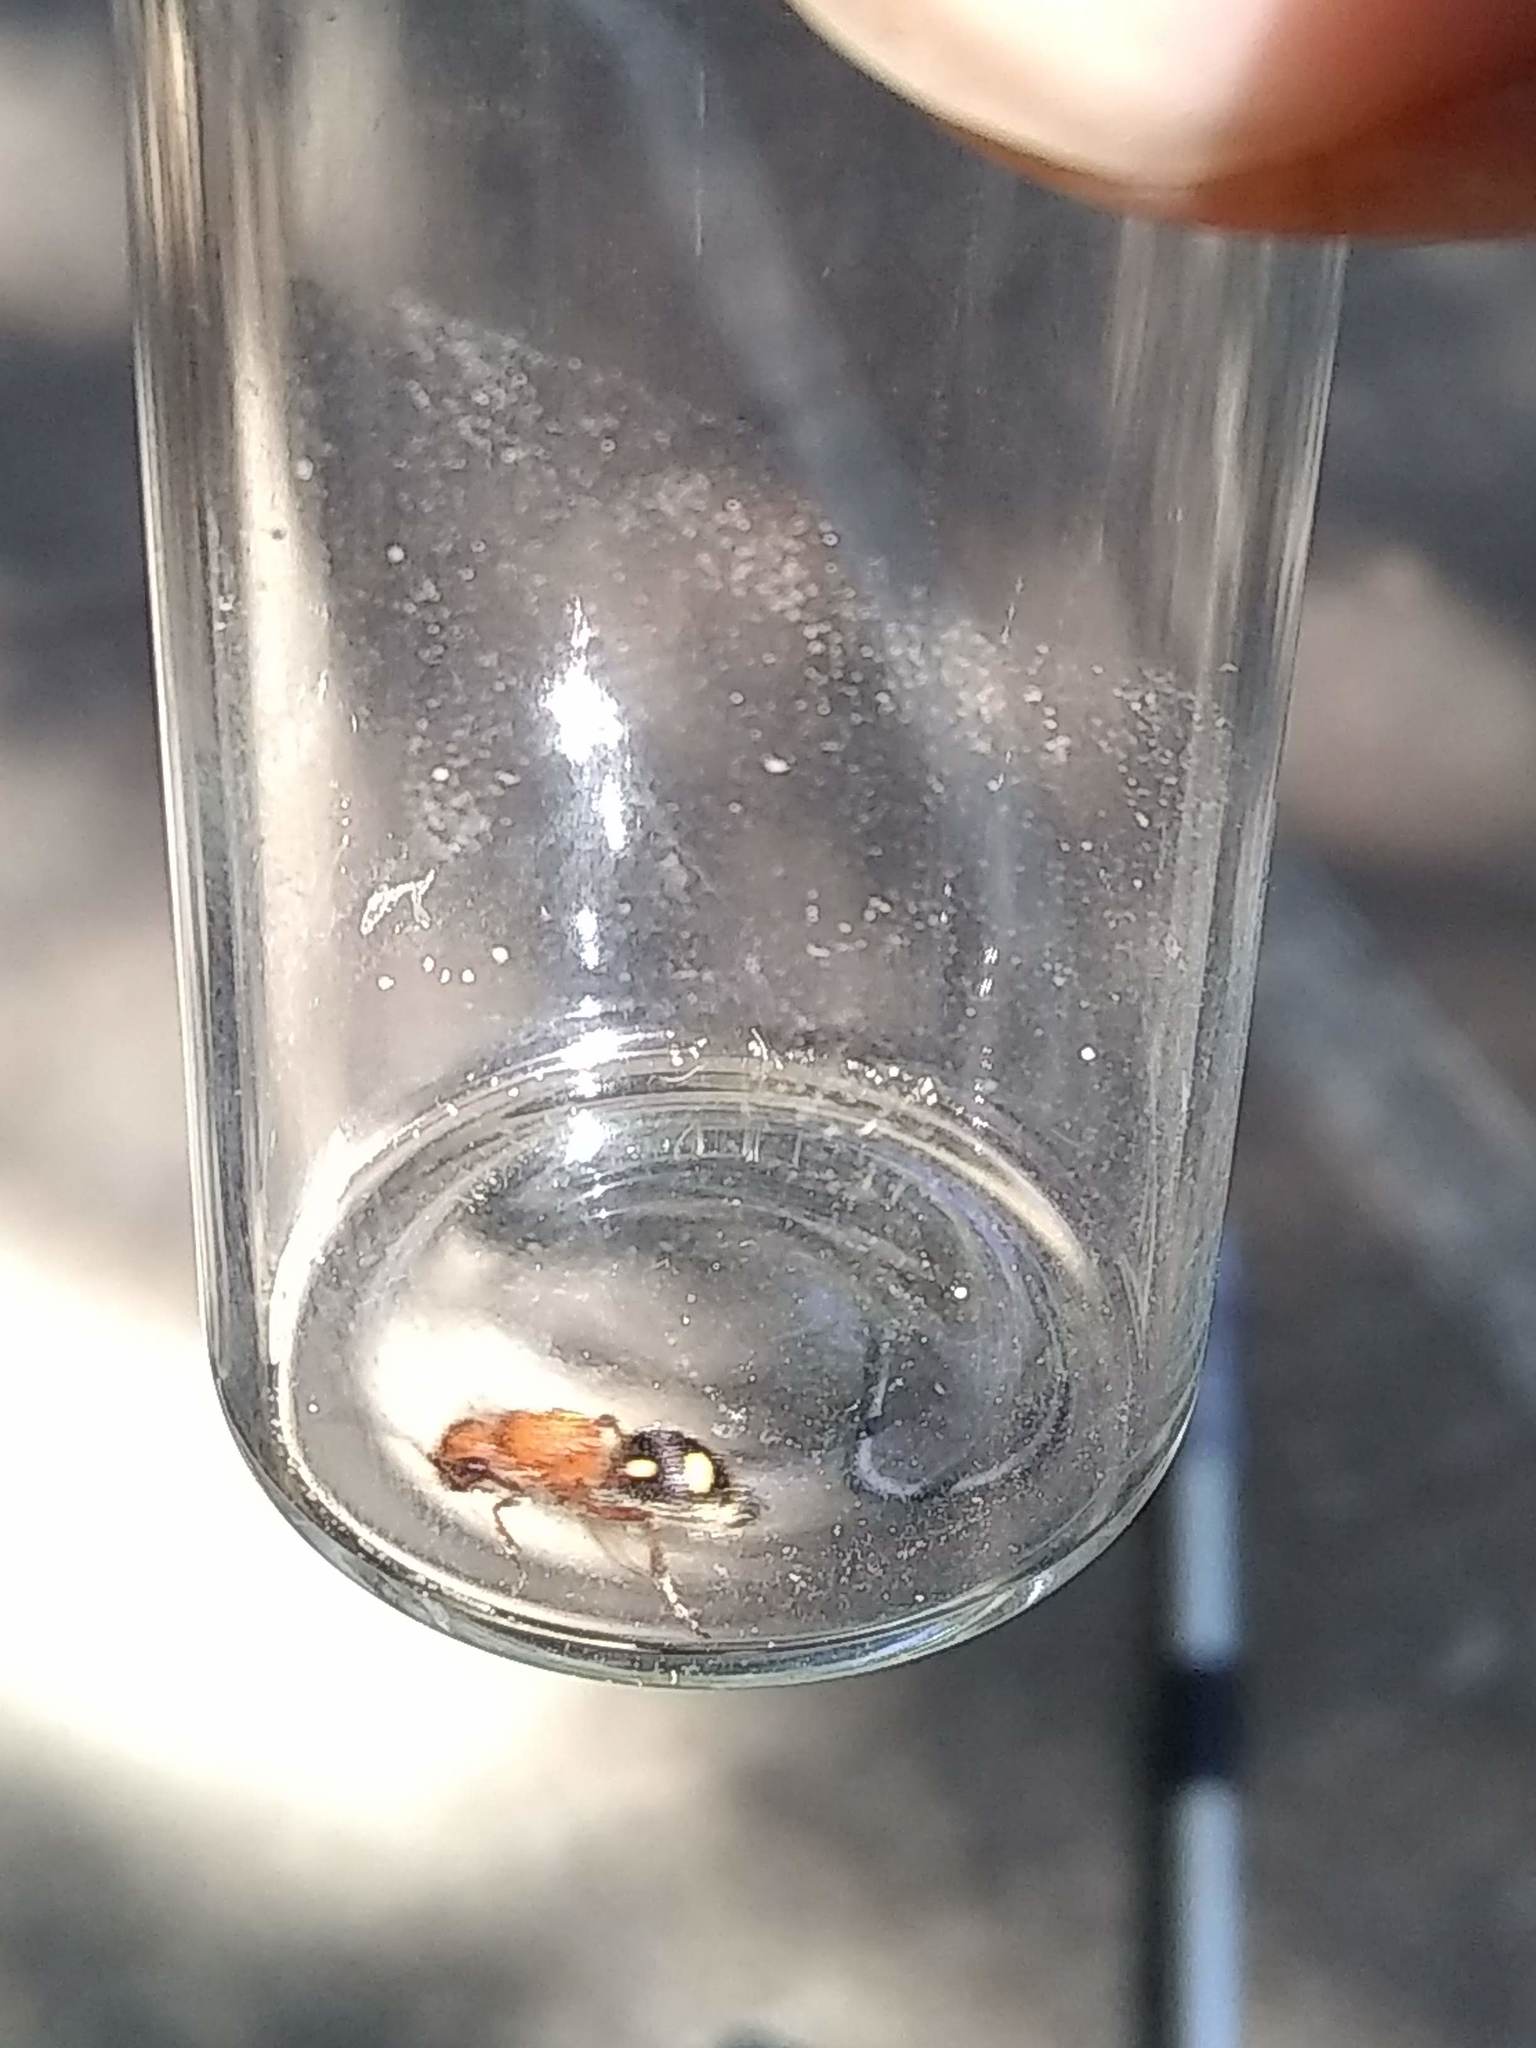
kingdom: Animalia
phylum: Arthropoda
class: Insecta
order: Hymenoptera
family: Mutillidae
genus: Dasymutilla
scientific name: Dasymutilla
